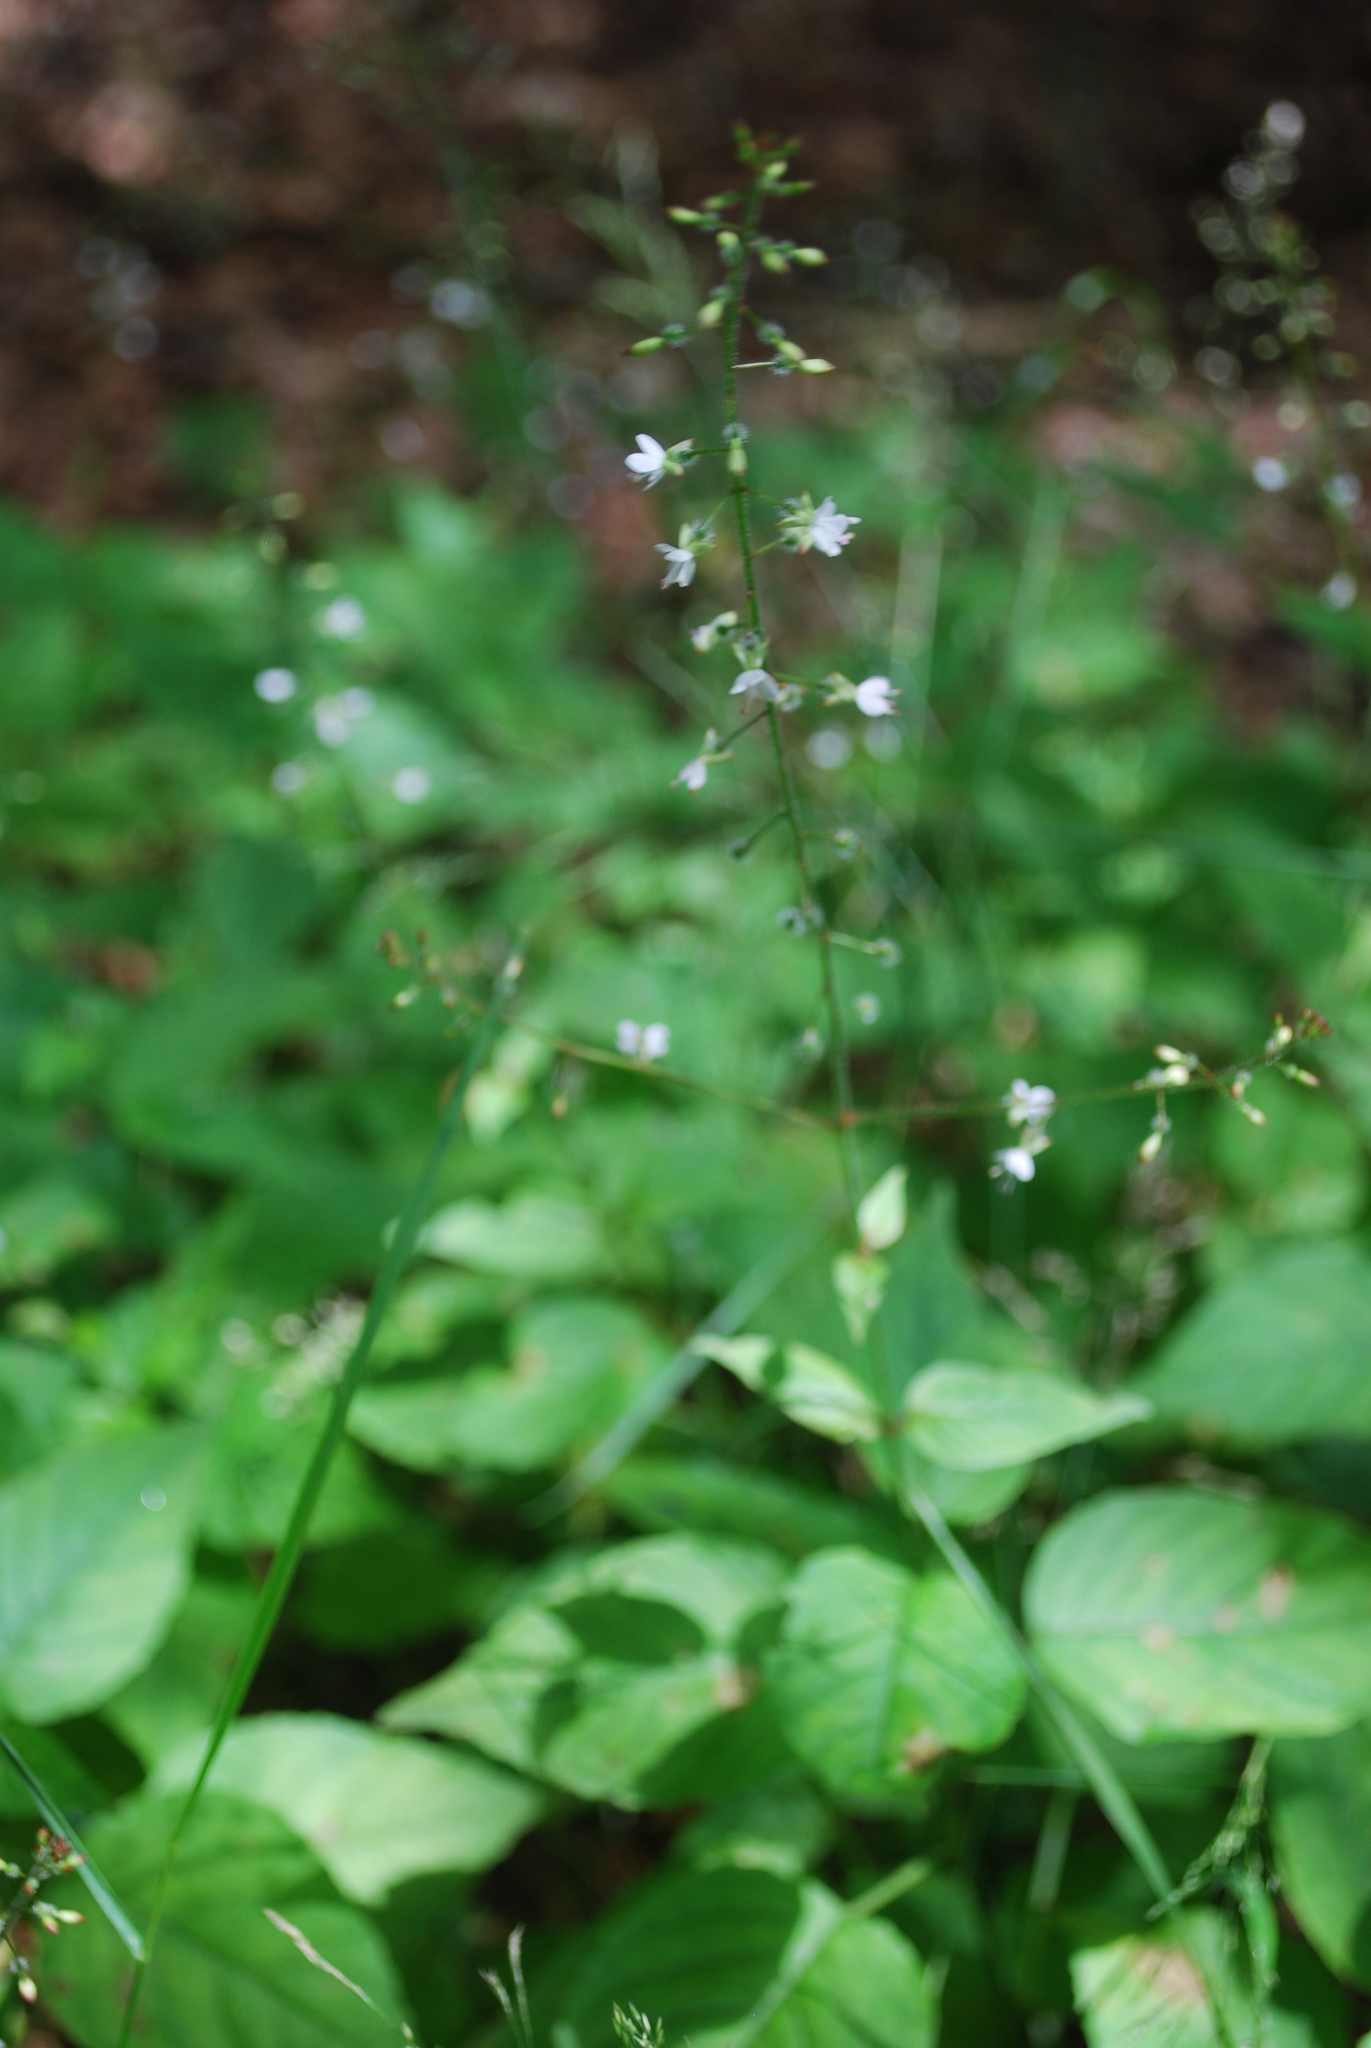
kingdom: Plantae
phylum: Tracheophyta
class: Magnoliopsida
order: Myrtales
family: Onagraceae
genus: Circaea
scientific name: Circaea lutetiana
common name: Enchanter's-nightshade
